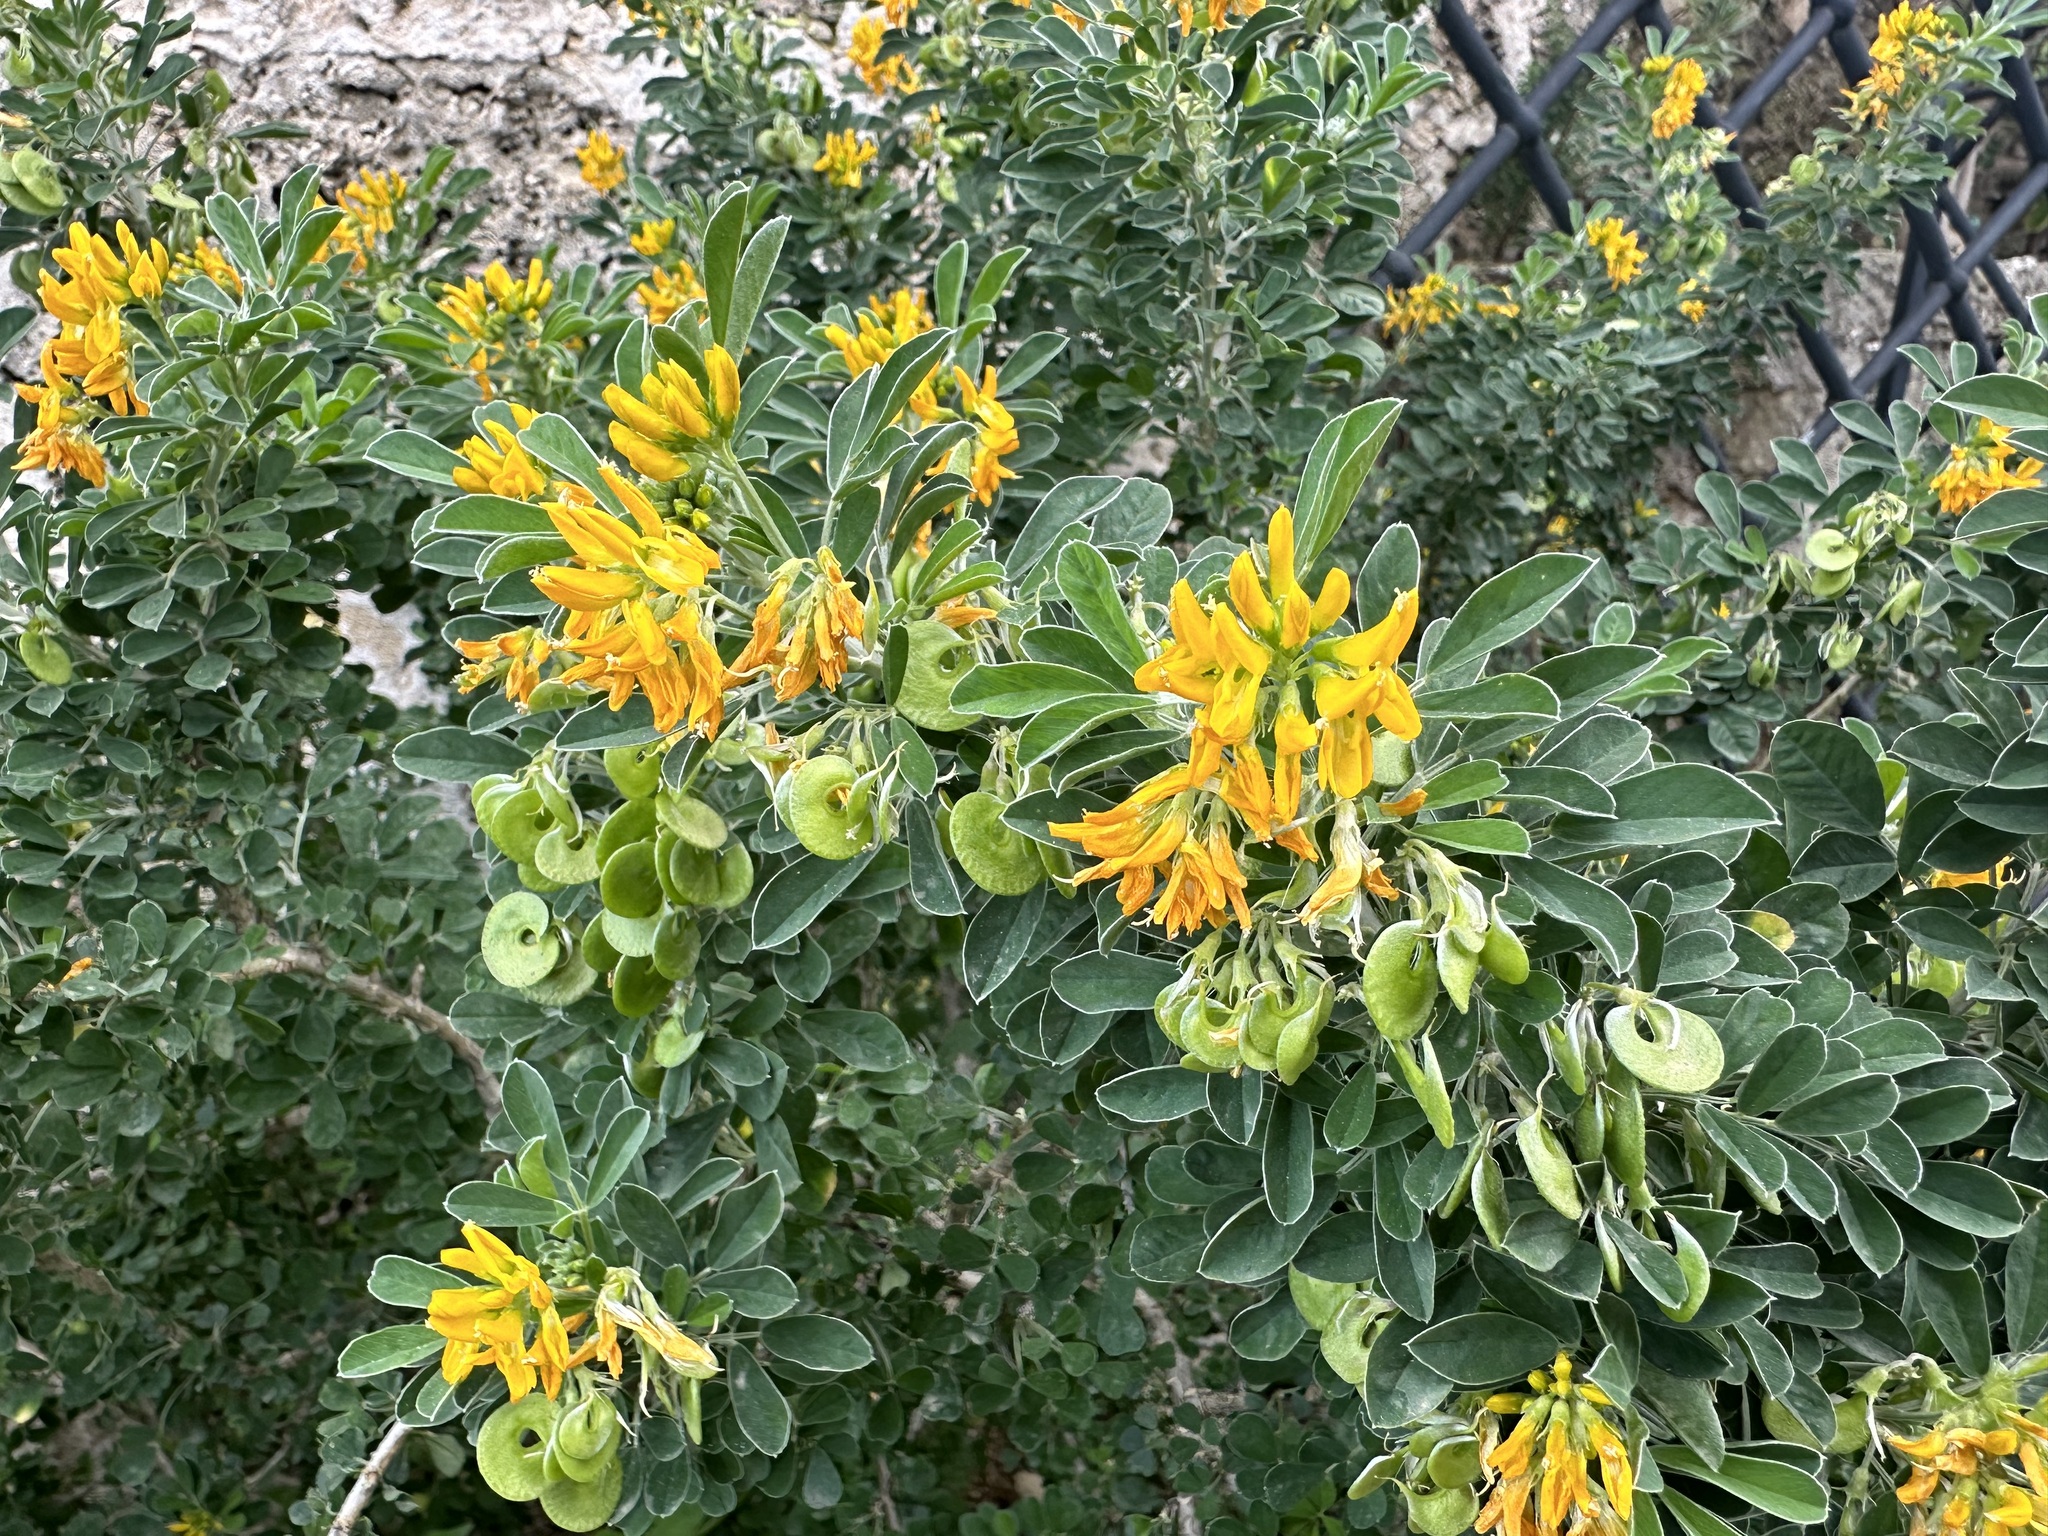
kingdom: Plantae
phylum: Tracheophyta
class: Magnoliopsida
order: Fabales
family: Fabaceae
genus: Medicago
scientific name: Medicago arborea
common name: Moon trefoil
